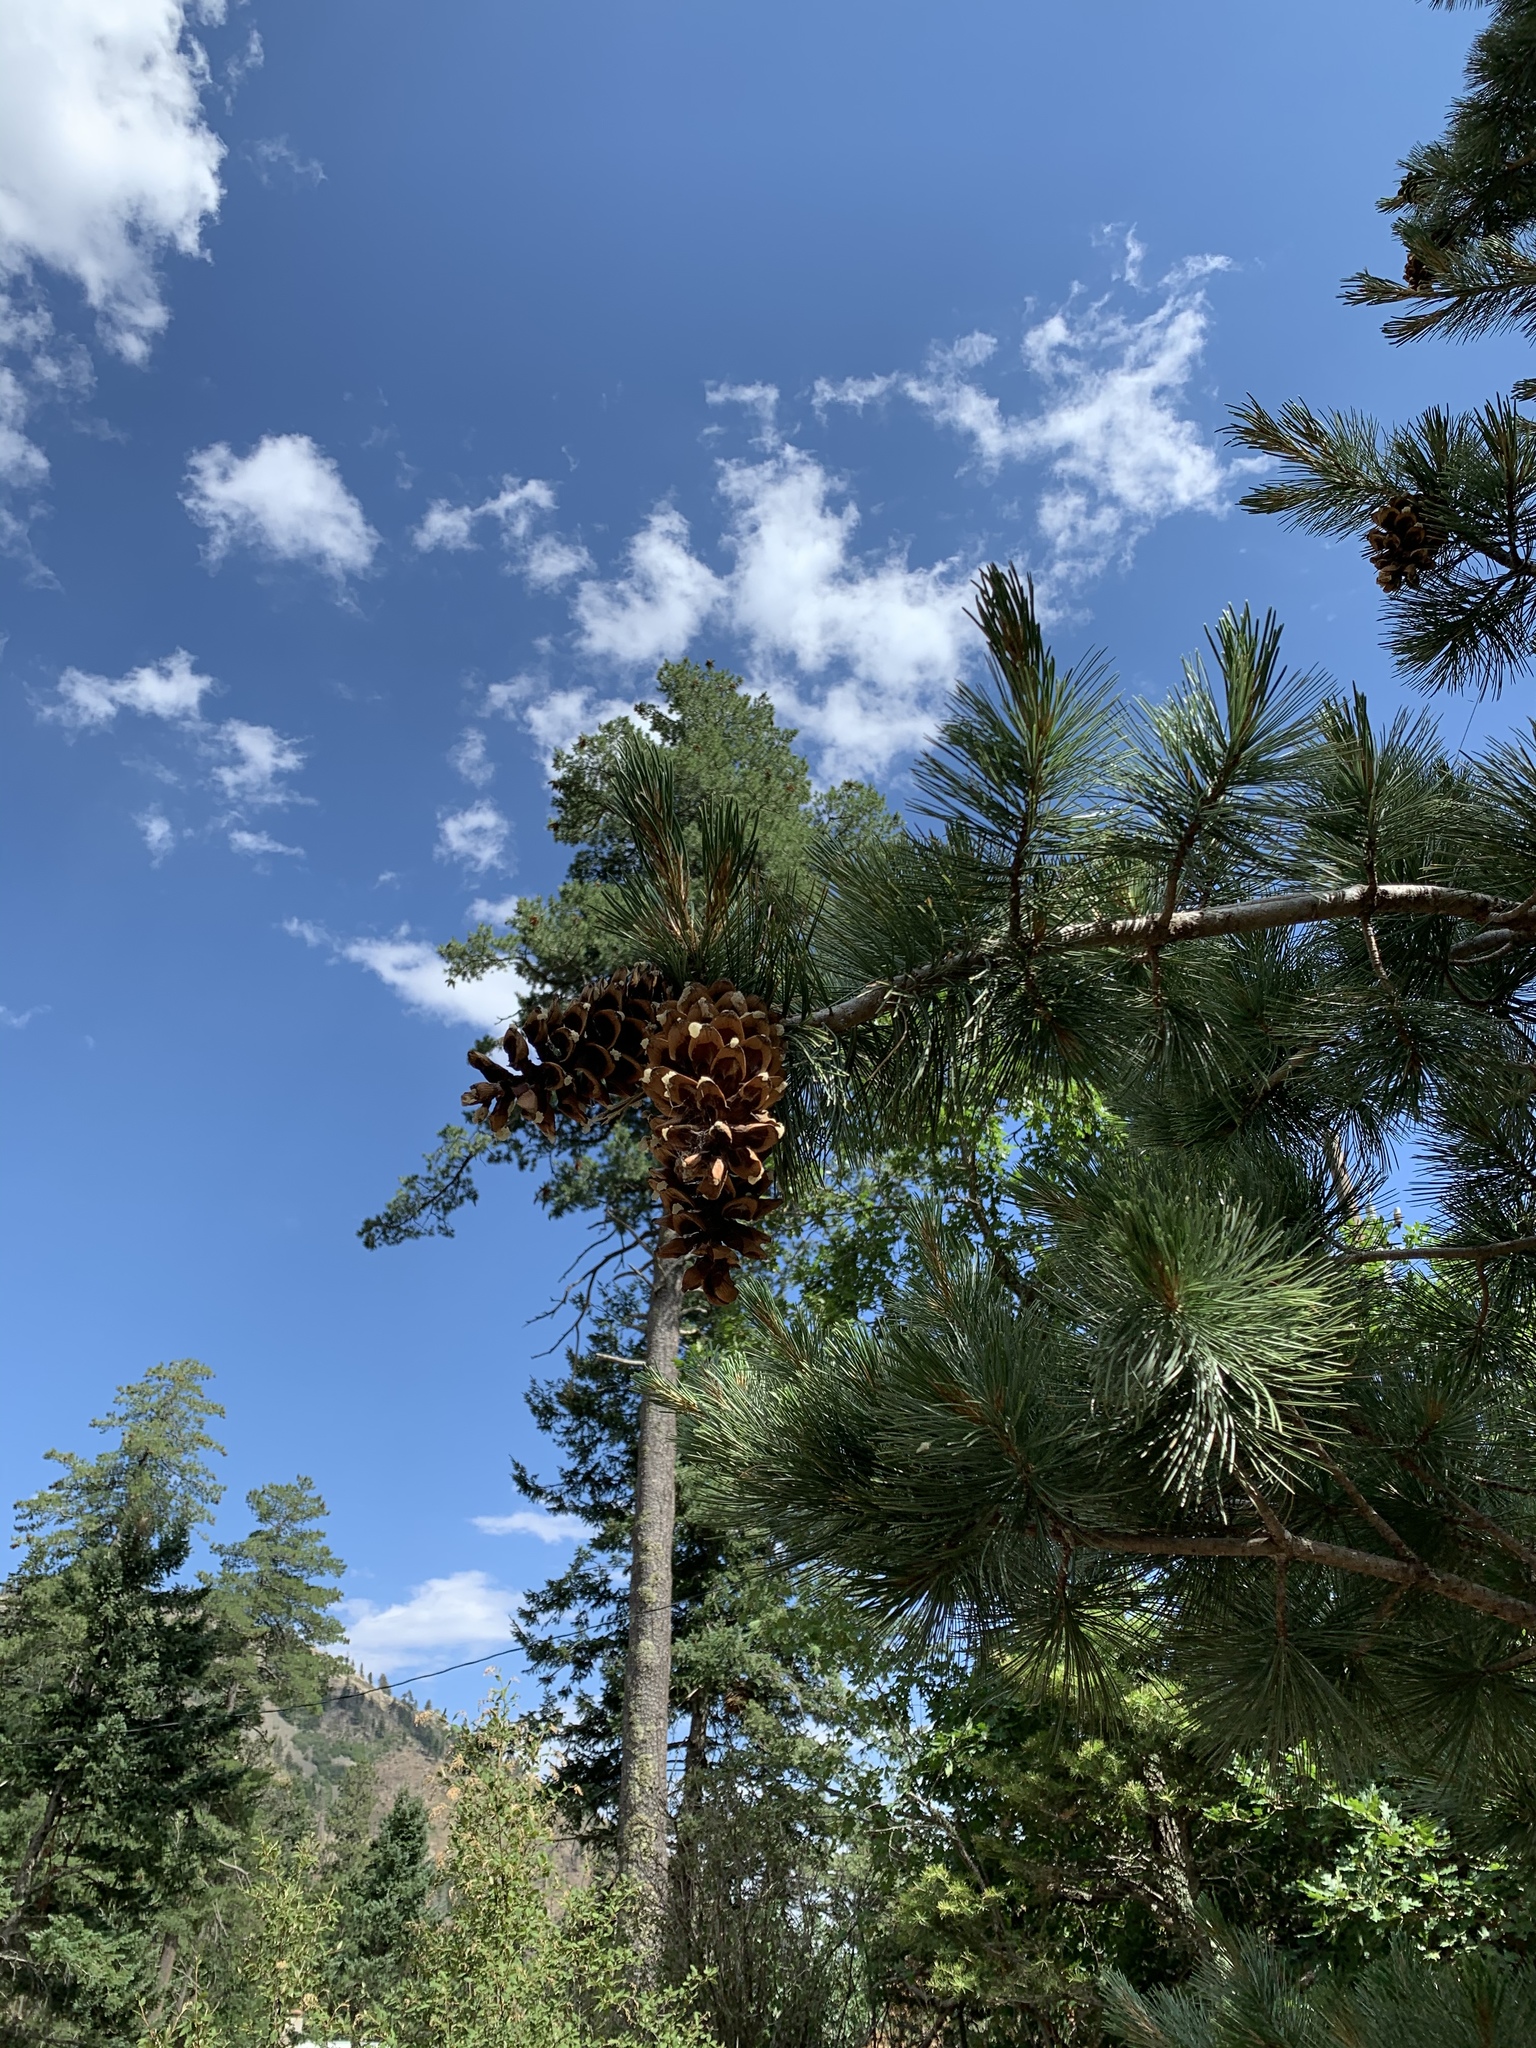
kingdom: Plantae
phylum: Tracheophyta
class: Pinopsida
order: Pinales
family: Pinaceae
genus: Pinus
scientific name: Pinus strobiformis
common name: Southwestern white pine
